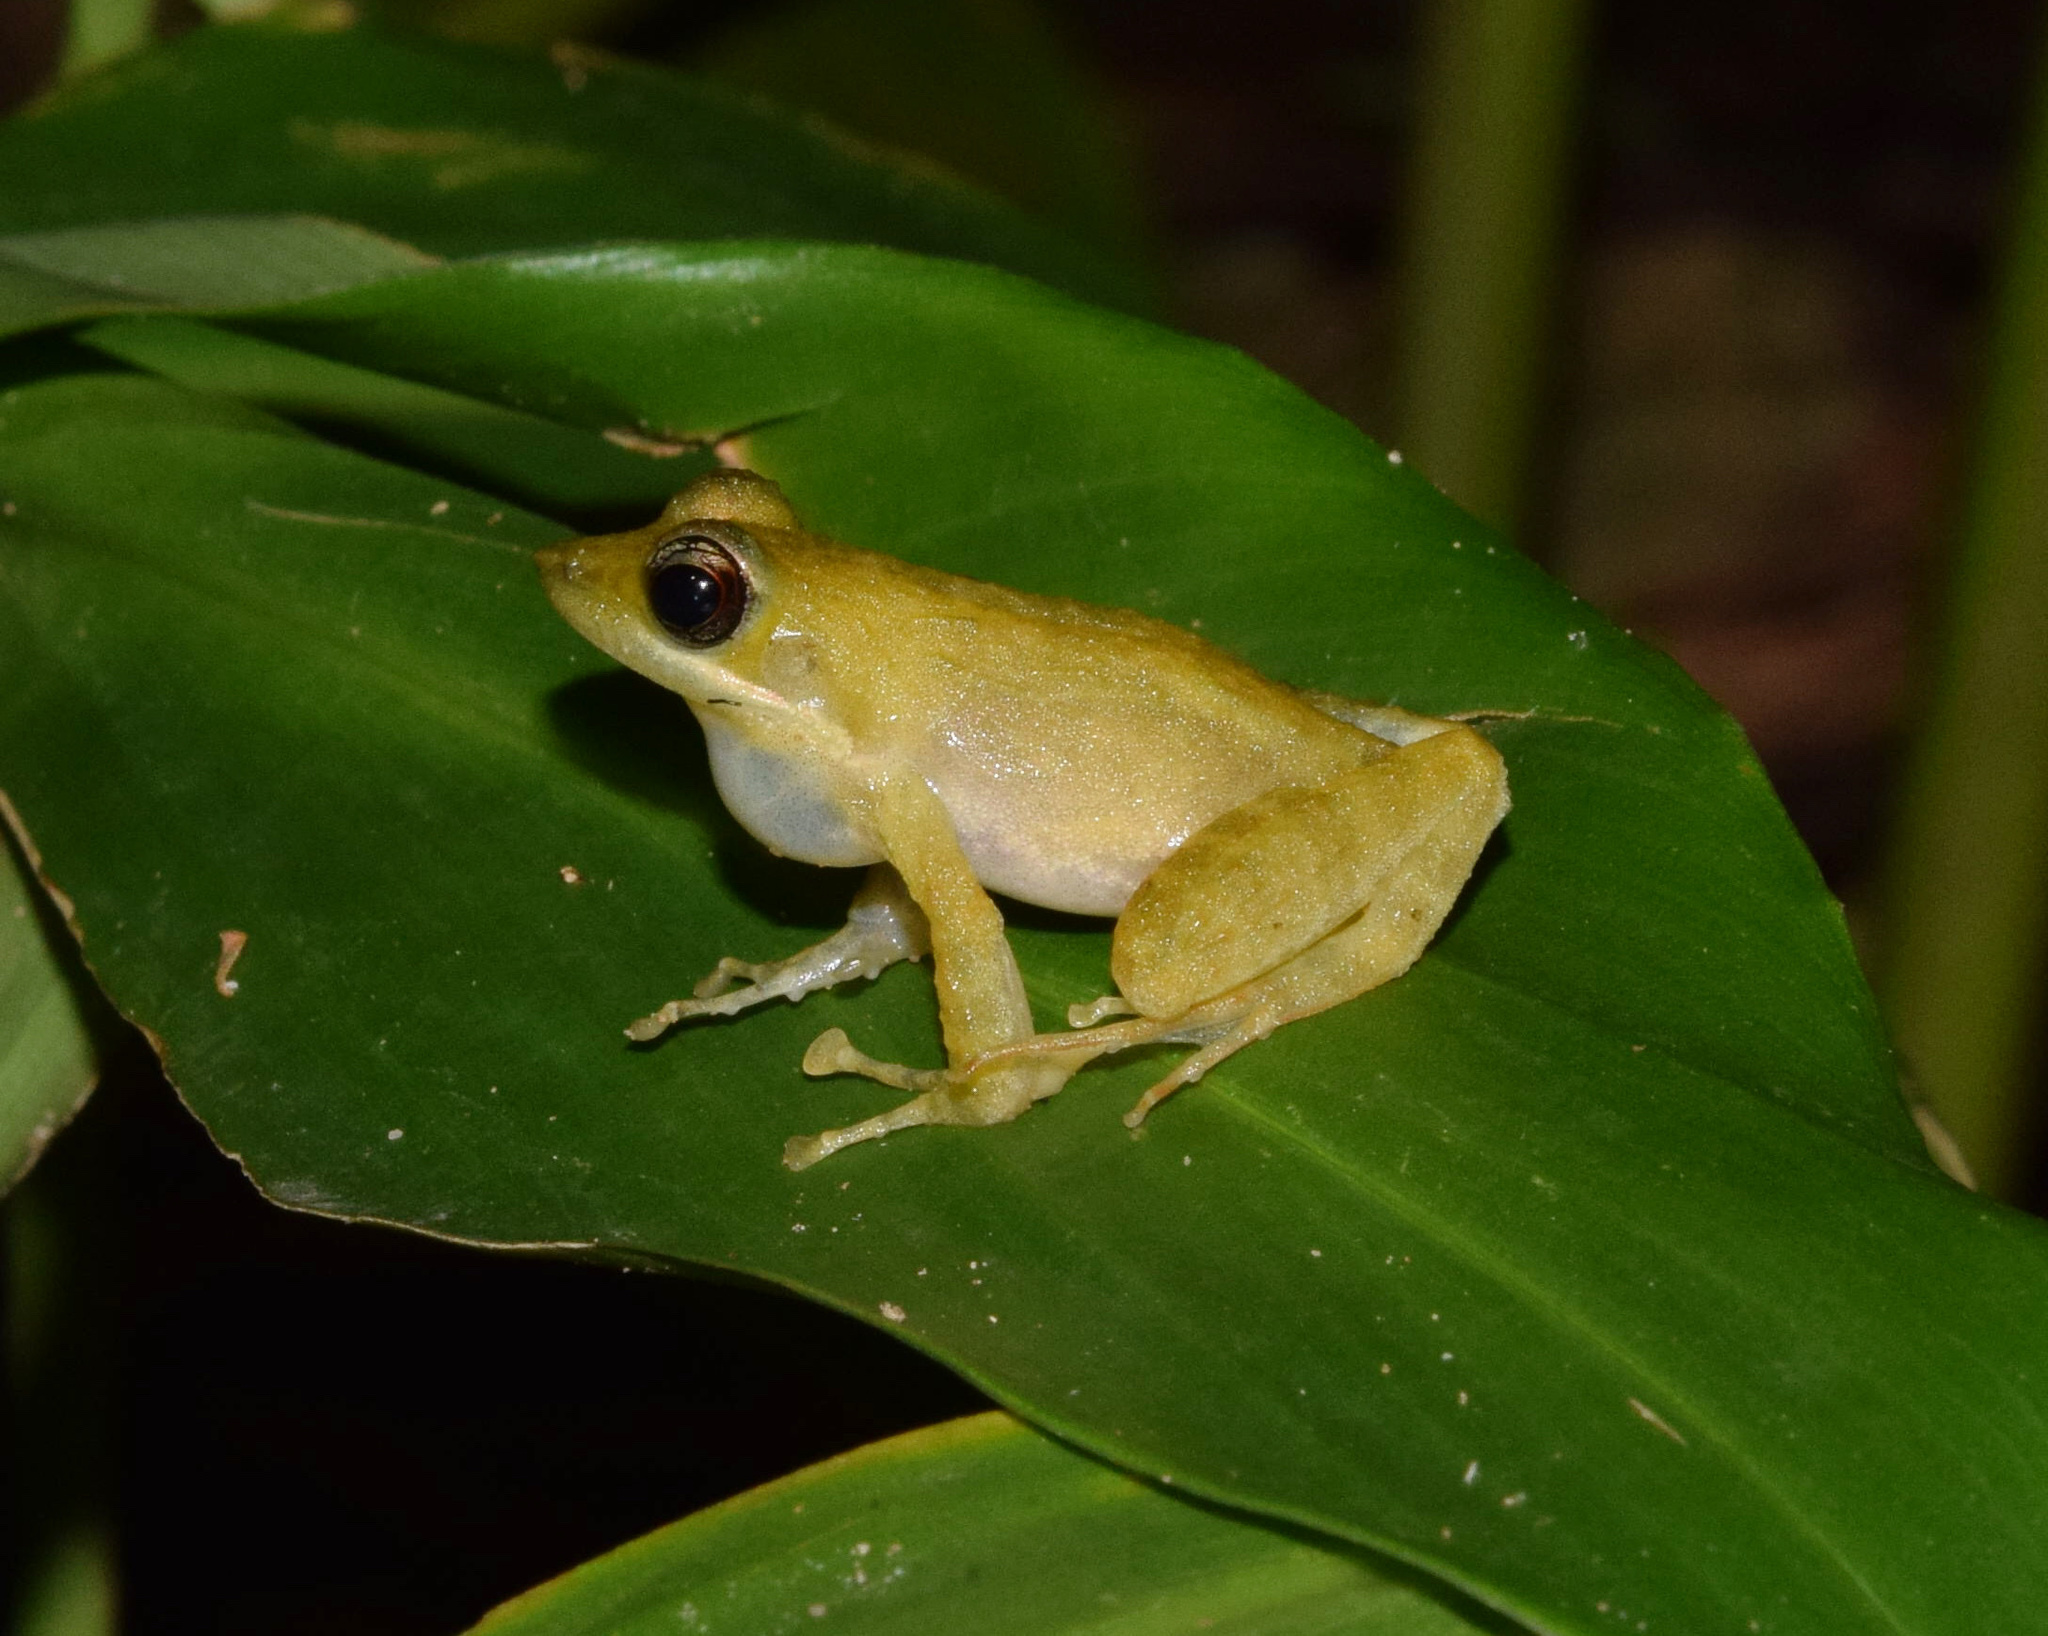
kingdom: Animalia
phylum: Chordata
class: Amphibia
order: Anura
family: Pyxicephalidae
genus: Natalobatrachus
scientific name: Natalobatrachus bonebergi
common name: Natal diving frog
